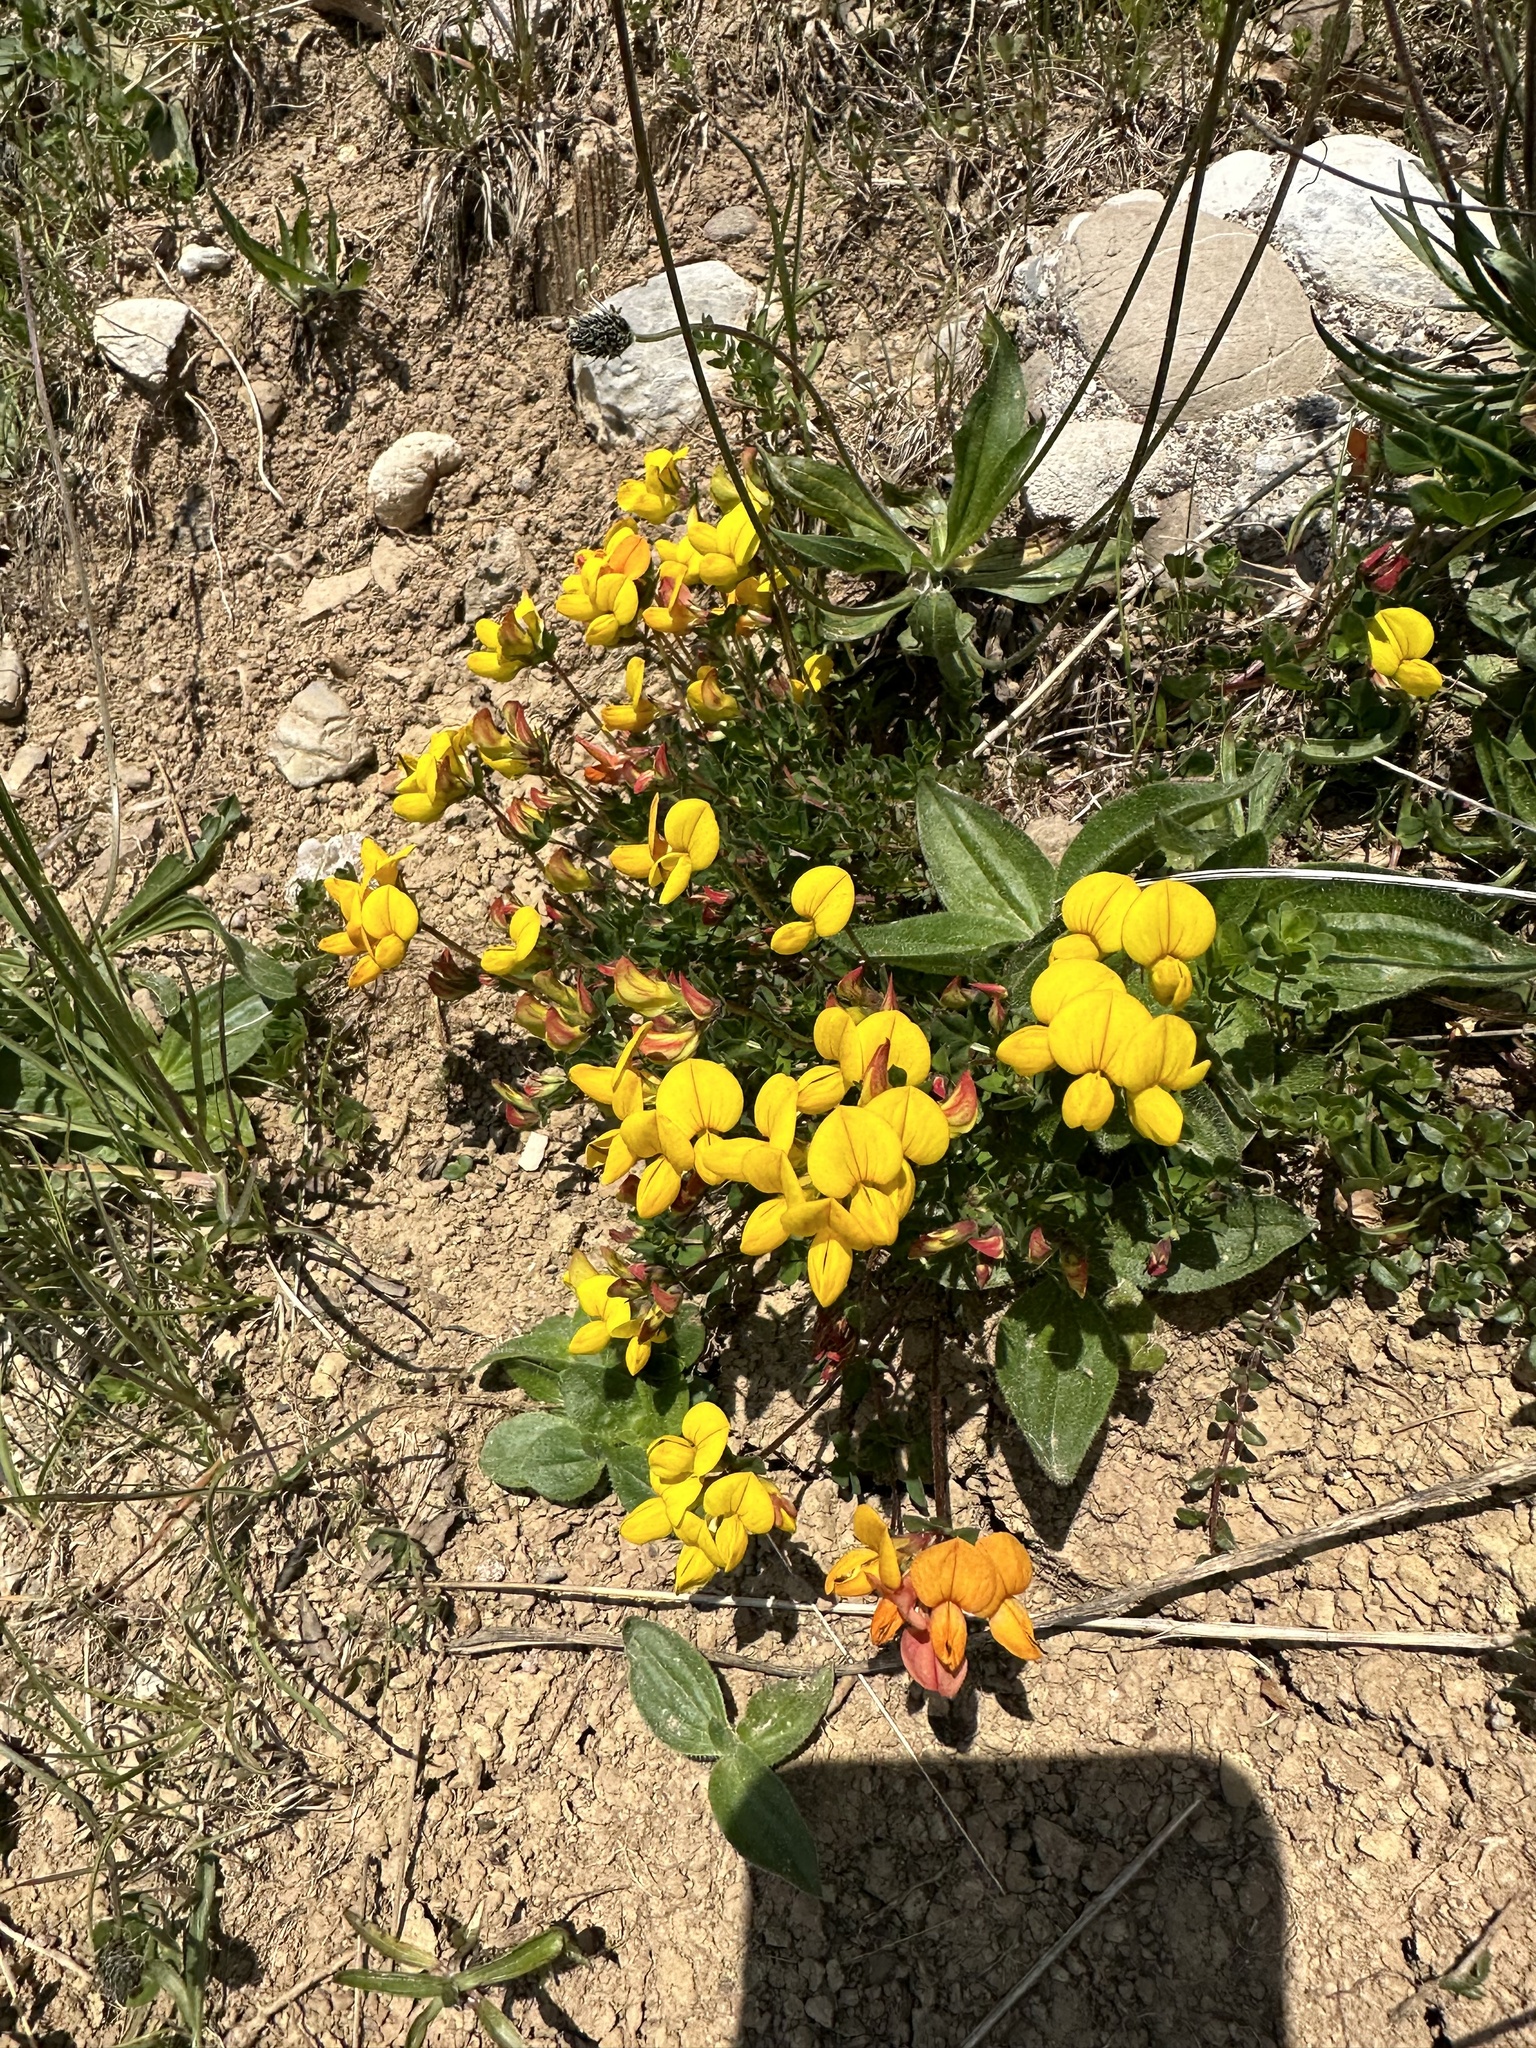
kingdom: Plantae
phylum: Tracheophyta
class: Magnoliopsida
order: Fabales
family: Fabaceae
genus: Lotus
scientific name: Lotus alpinus
